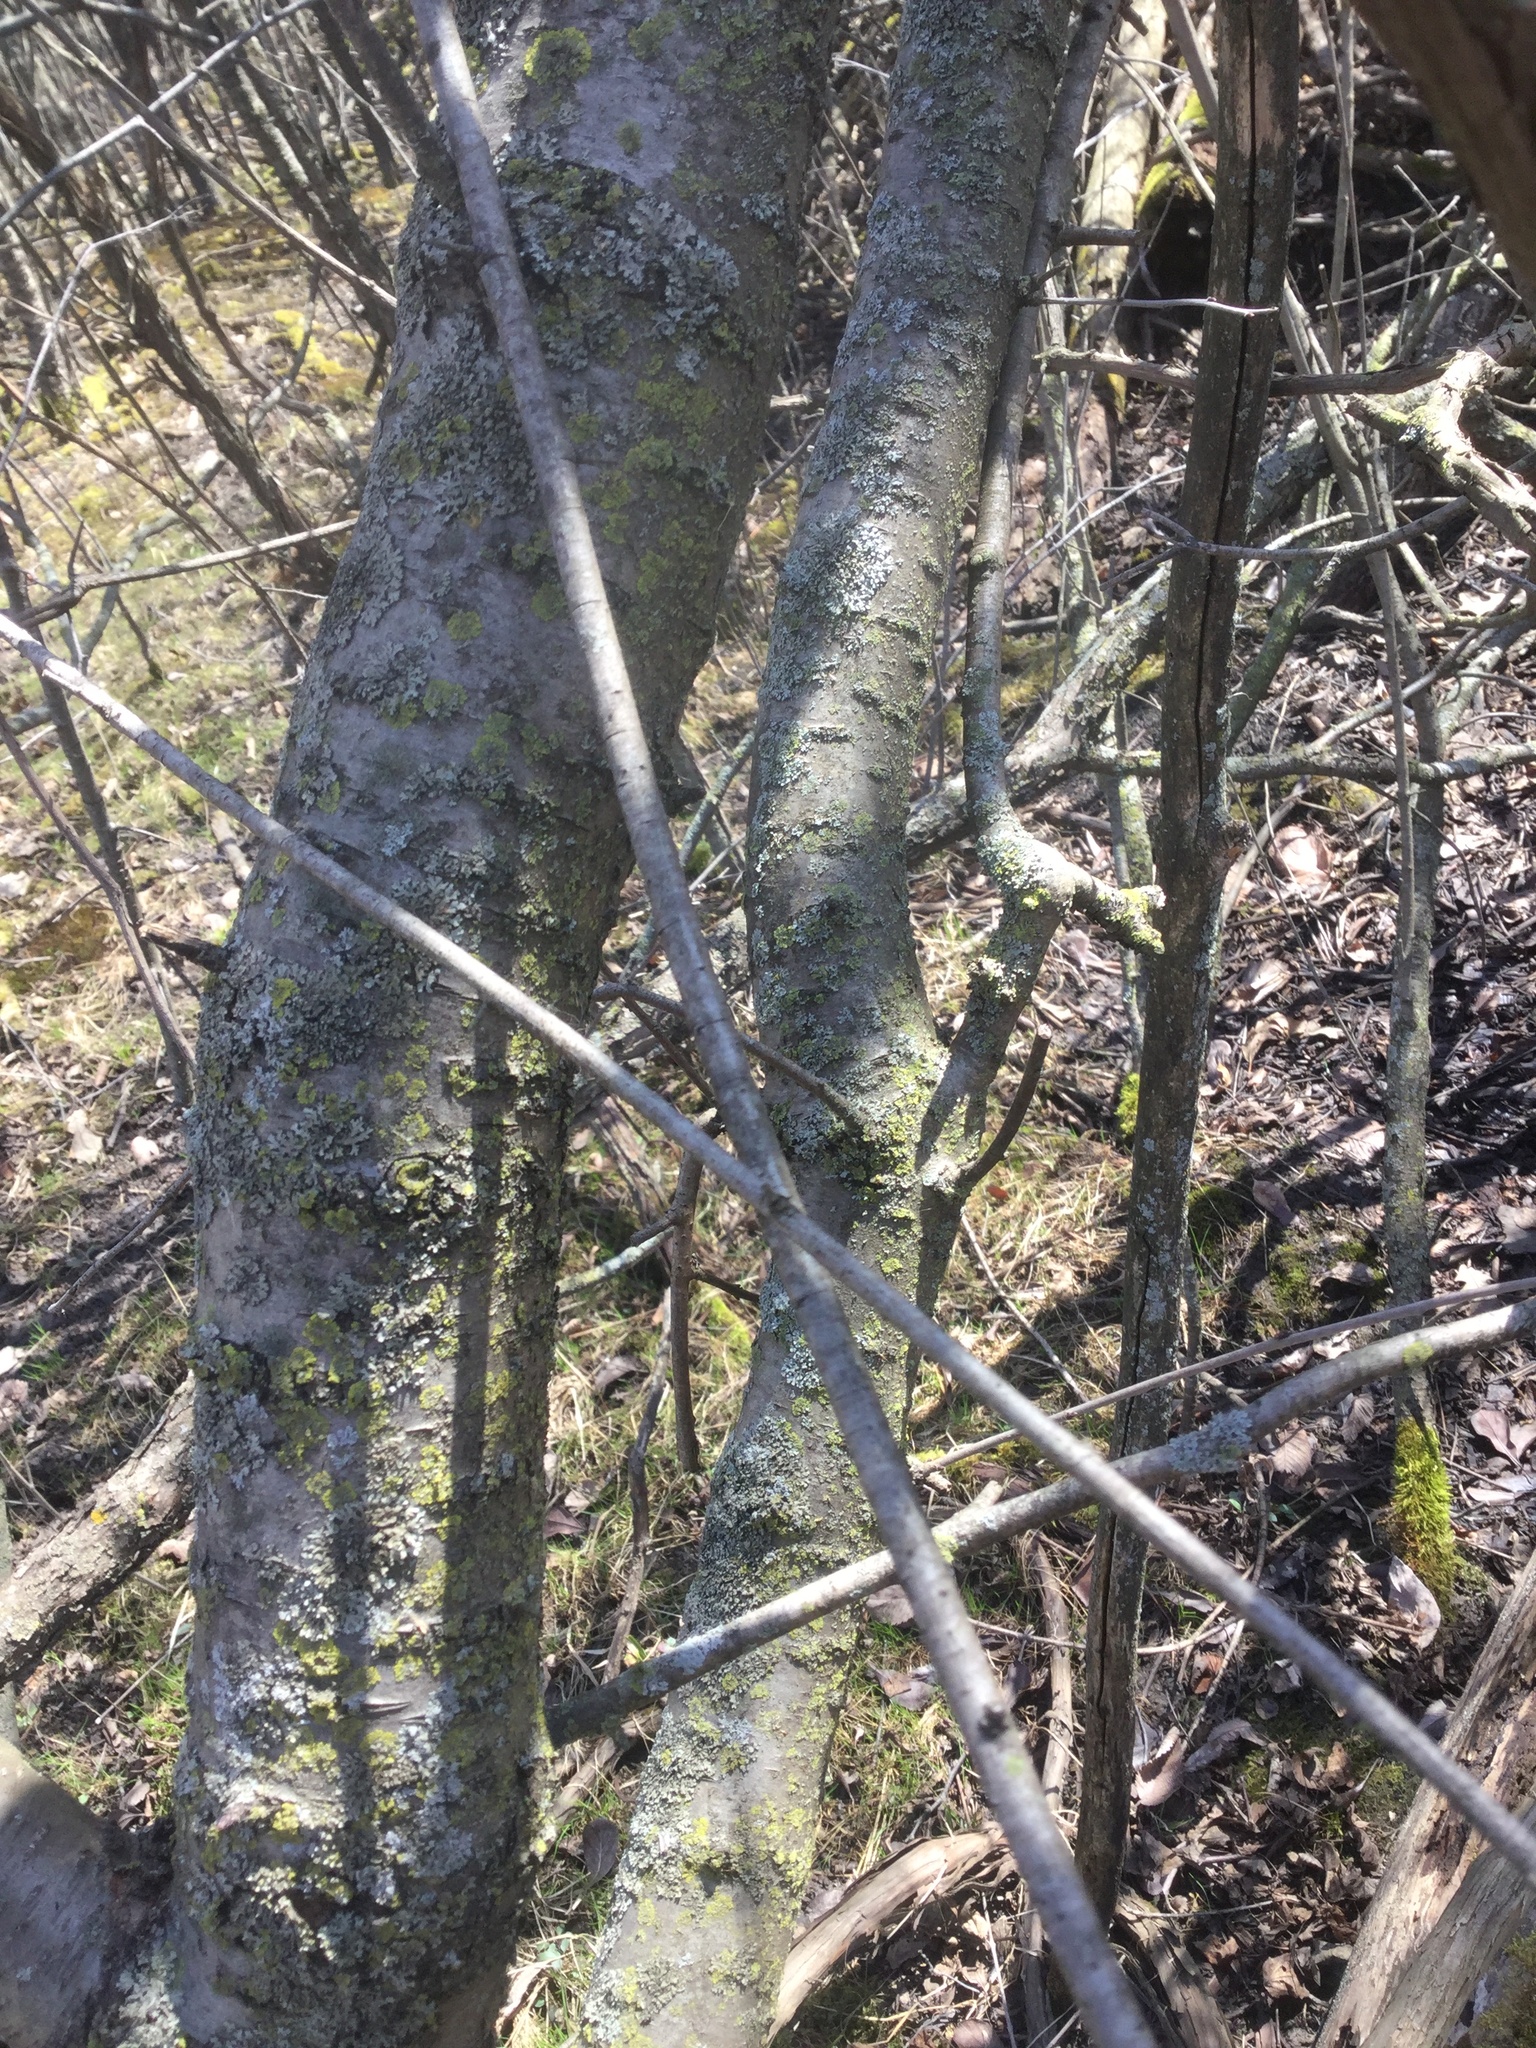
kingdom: Plantae
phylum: Tracheophyta
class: Magnoliopsida
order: Rosales
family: Rhamnaceae
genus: Rhamnus
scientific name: Rhamnus cathartica
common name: Common buckthorn
